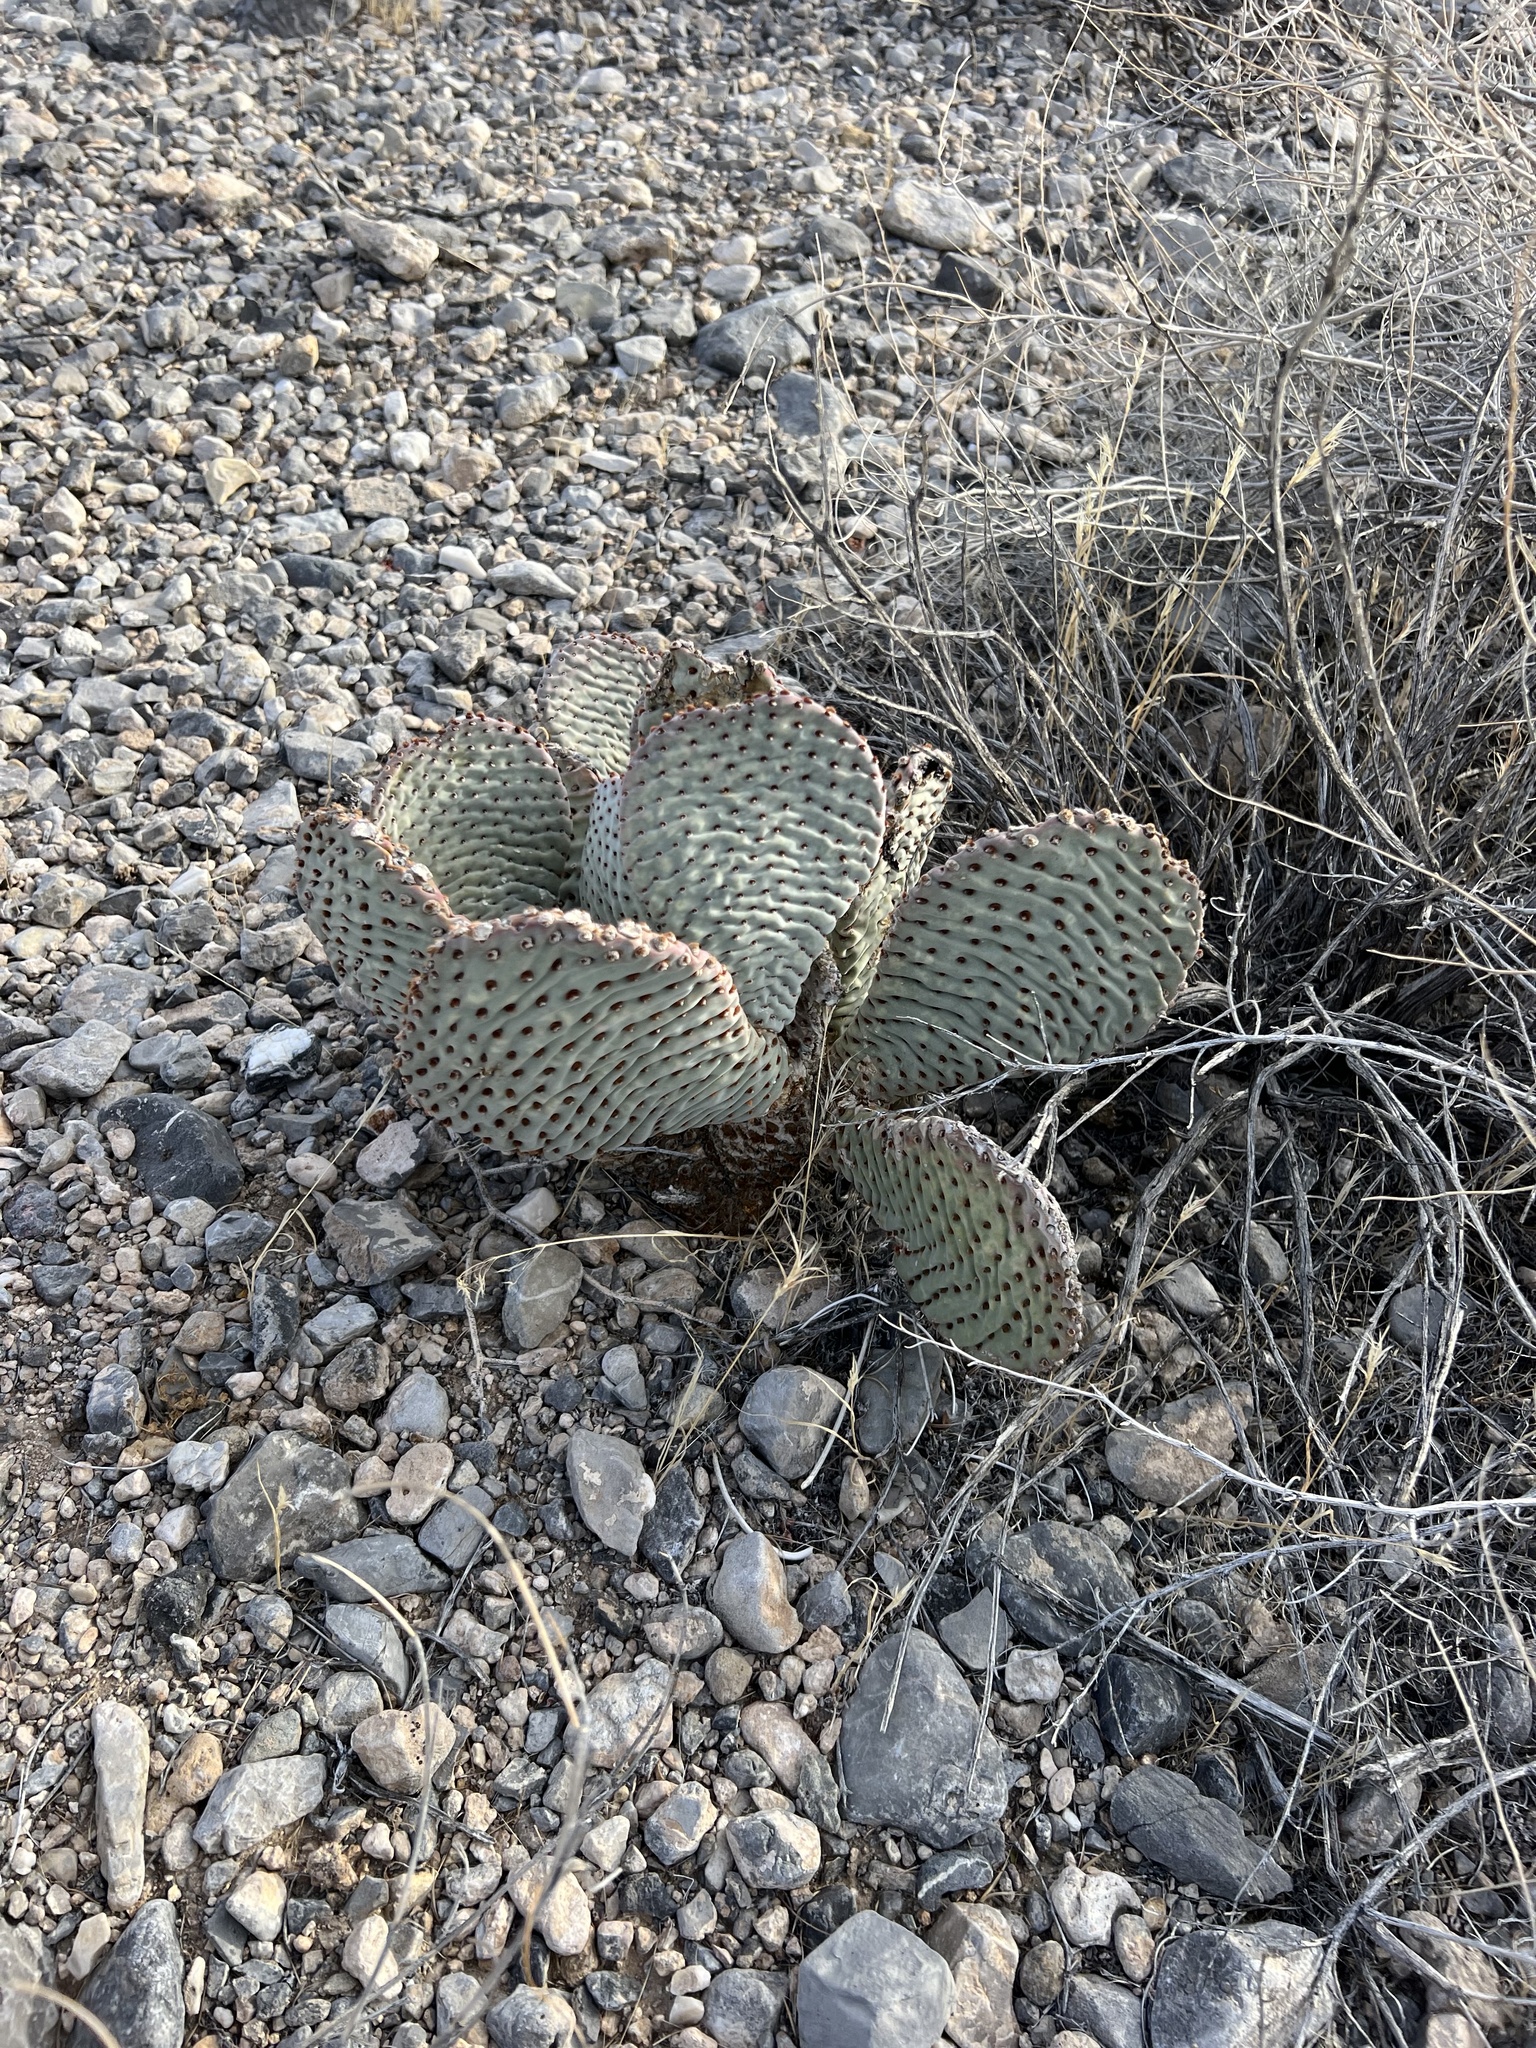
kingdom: Plantae
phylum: Tracheophyta
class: Magnoliopsida
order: Caryophyllales
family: Cactaceae
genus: Opuntia
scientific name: Opuntia basilaris
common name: Beavertail prickly-pear
